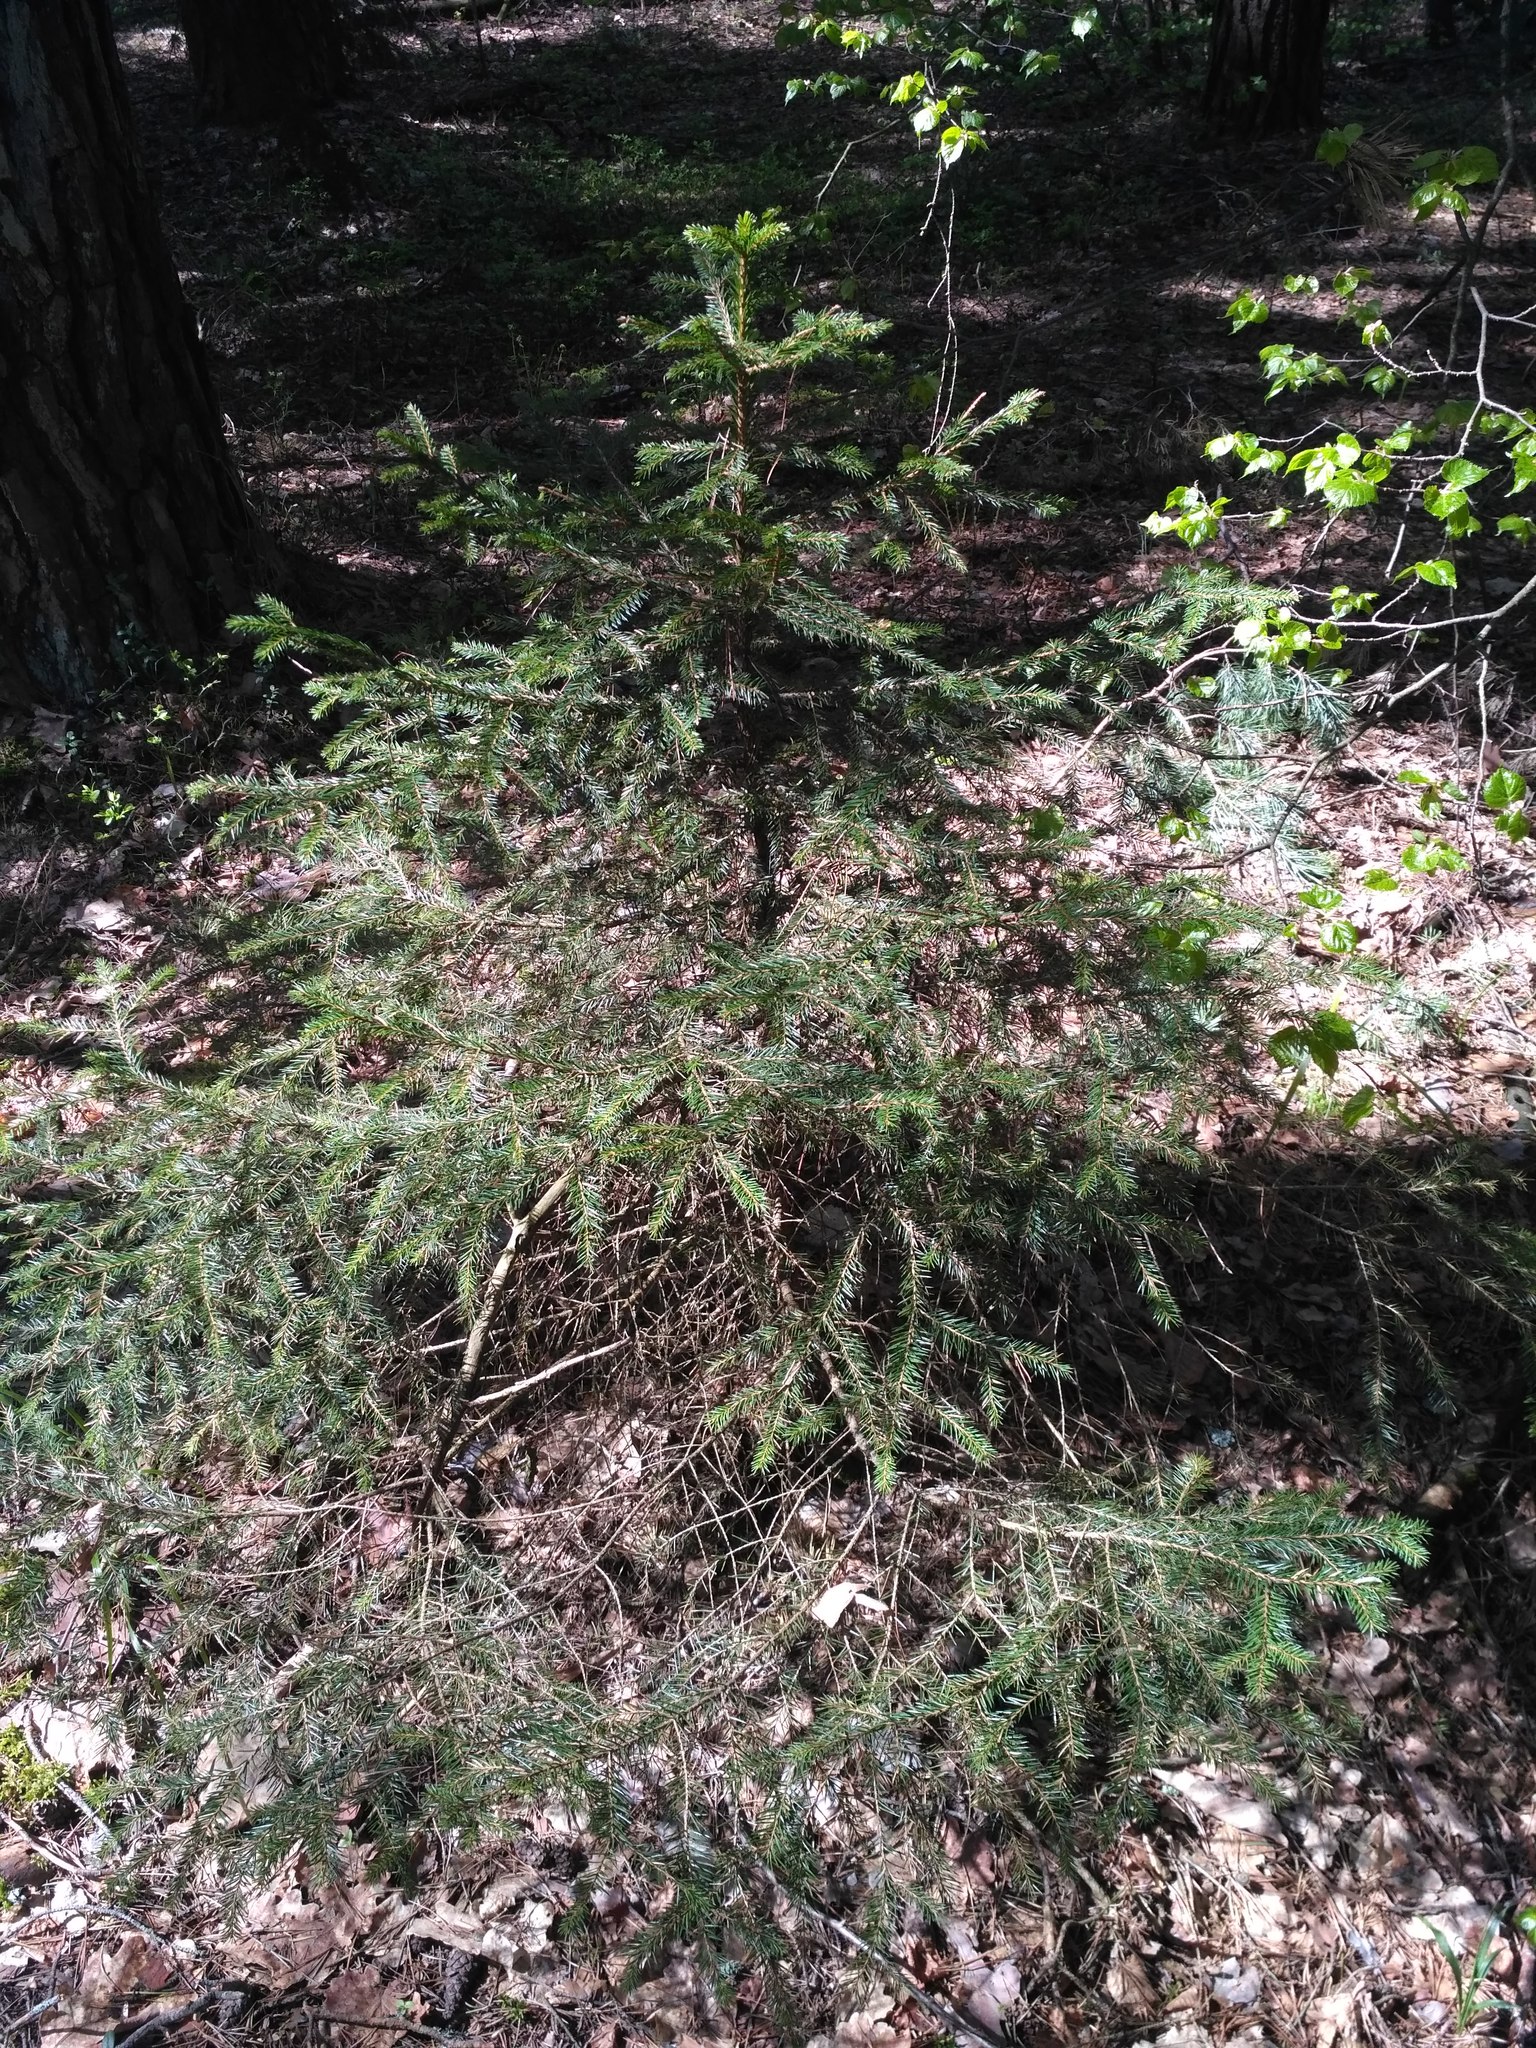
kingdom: Plantae
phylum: Tracheophyta
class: Pinopsida
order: Pinales
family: Pinaceae
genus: Picea
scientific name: Picea abies
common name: Norway spruce
